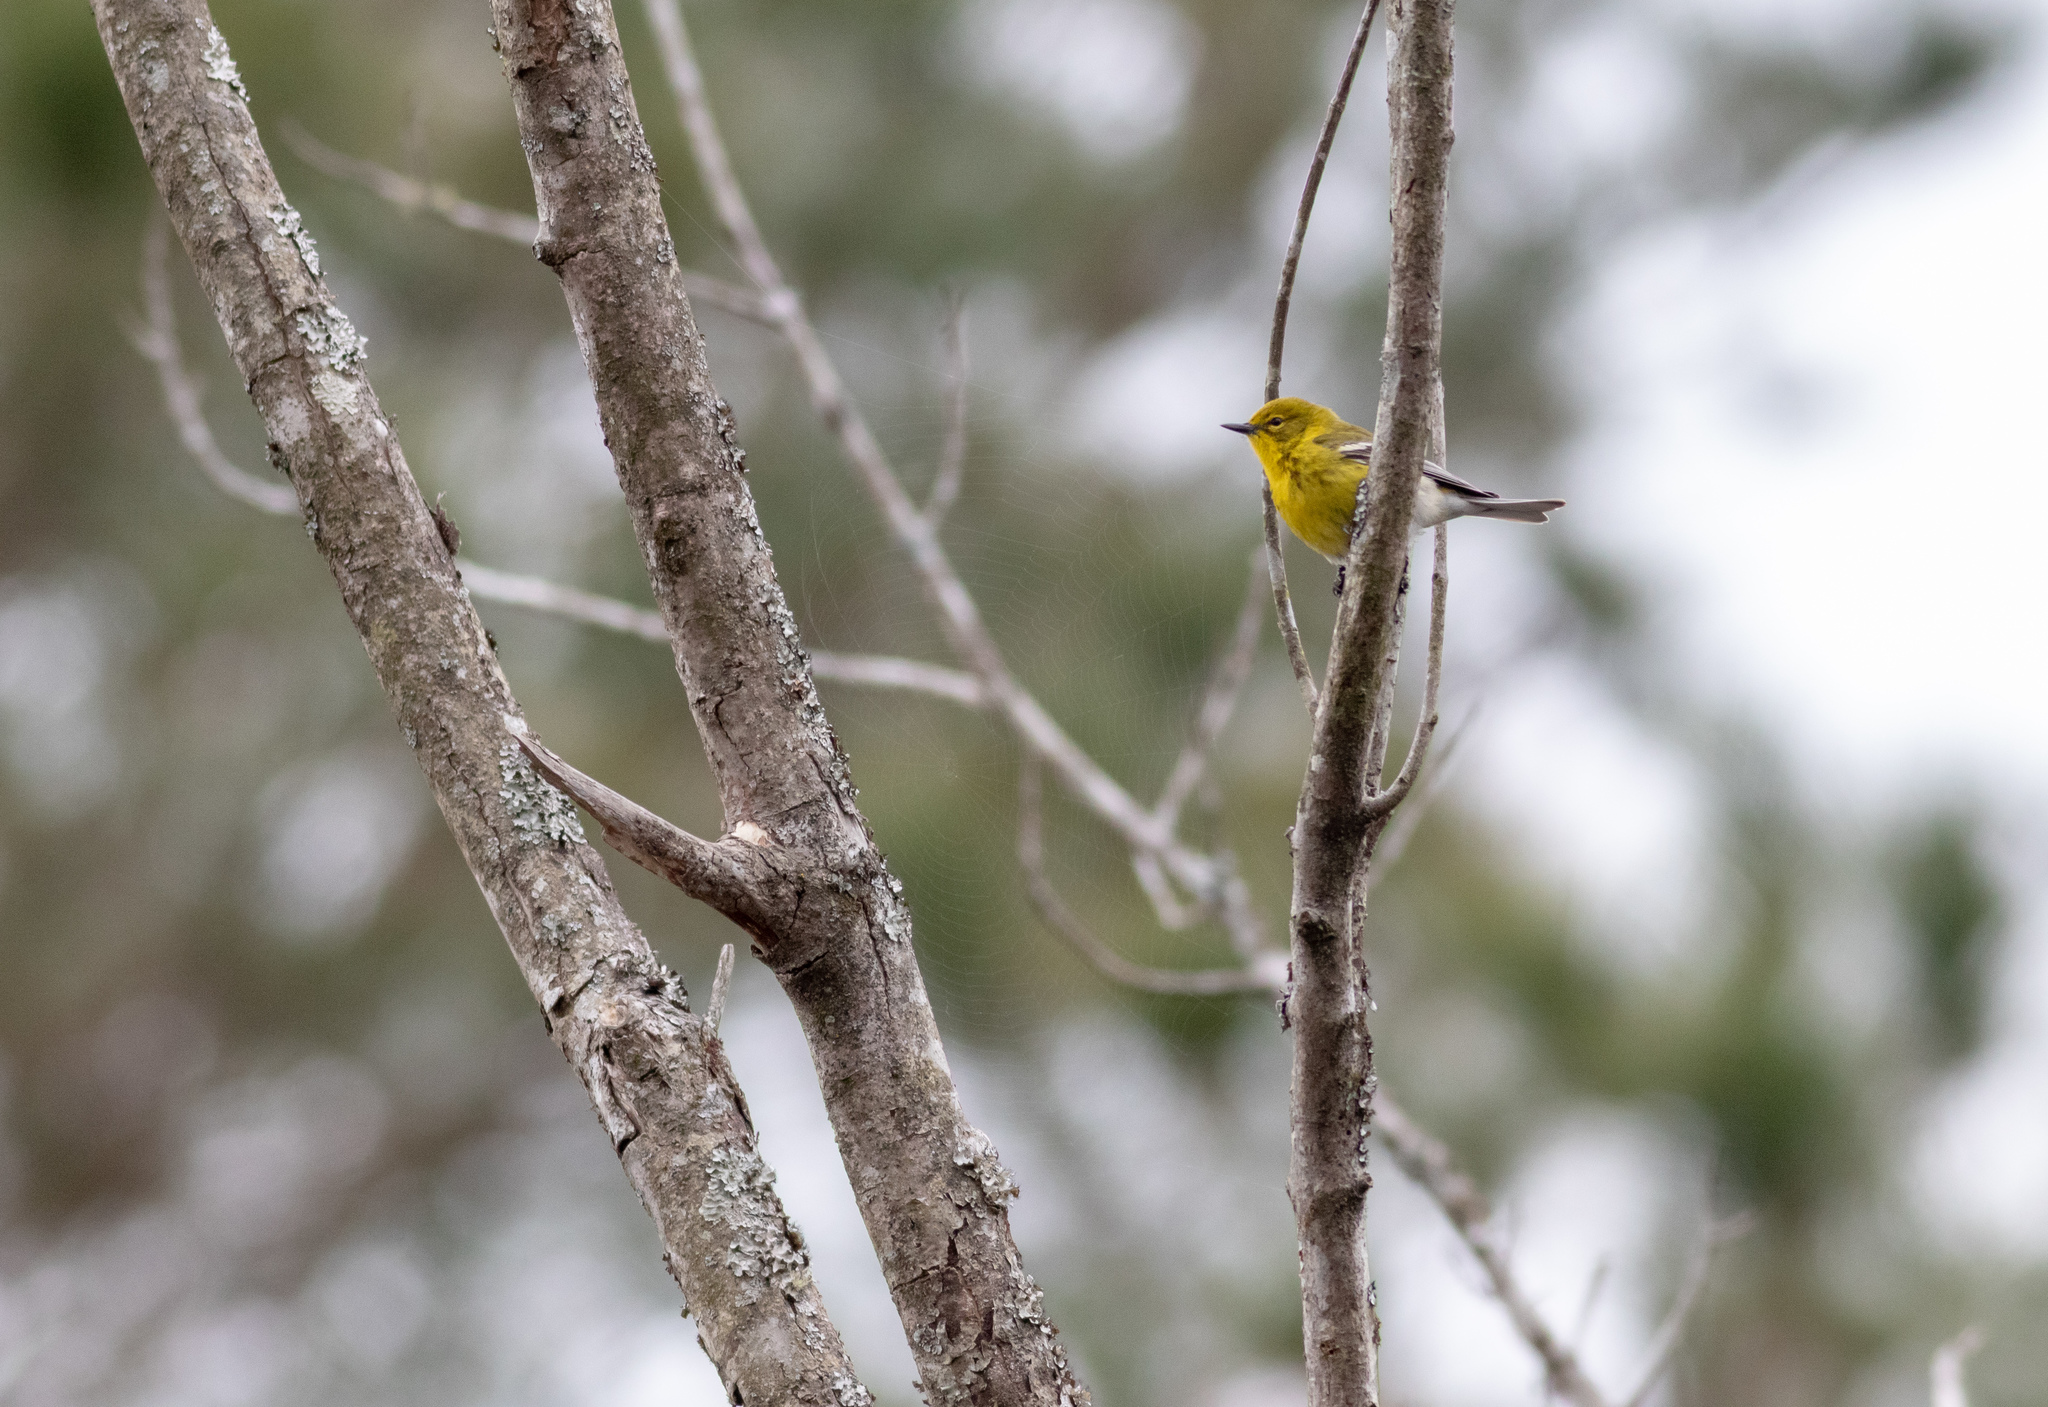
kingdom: Animalia
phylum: Chordata
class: Aves
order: Passeriformes
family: Parulidae
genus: Setophaga
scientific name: Setophaga pinus
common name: Pine warbler
